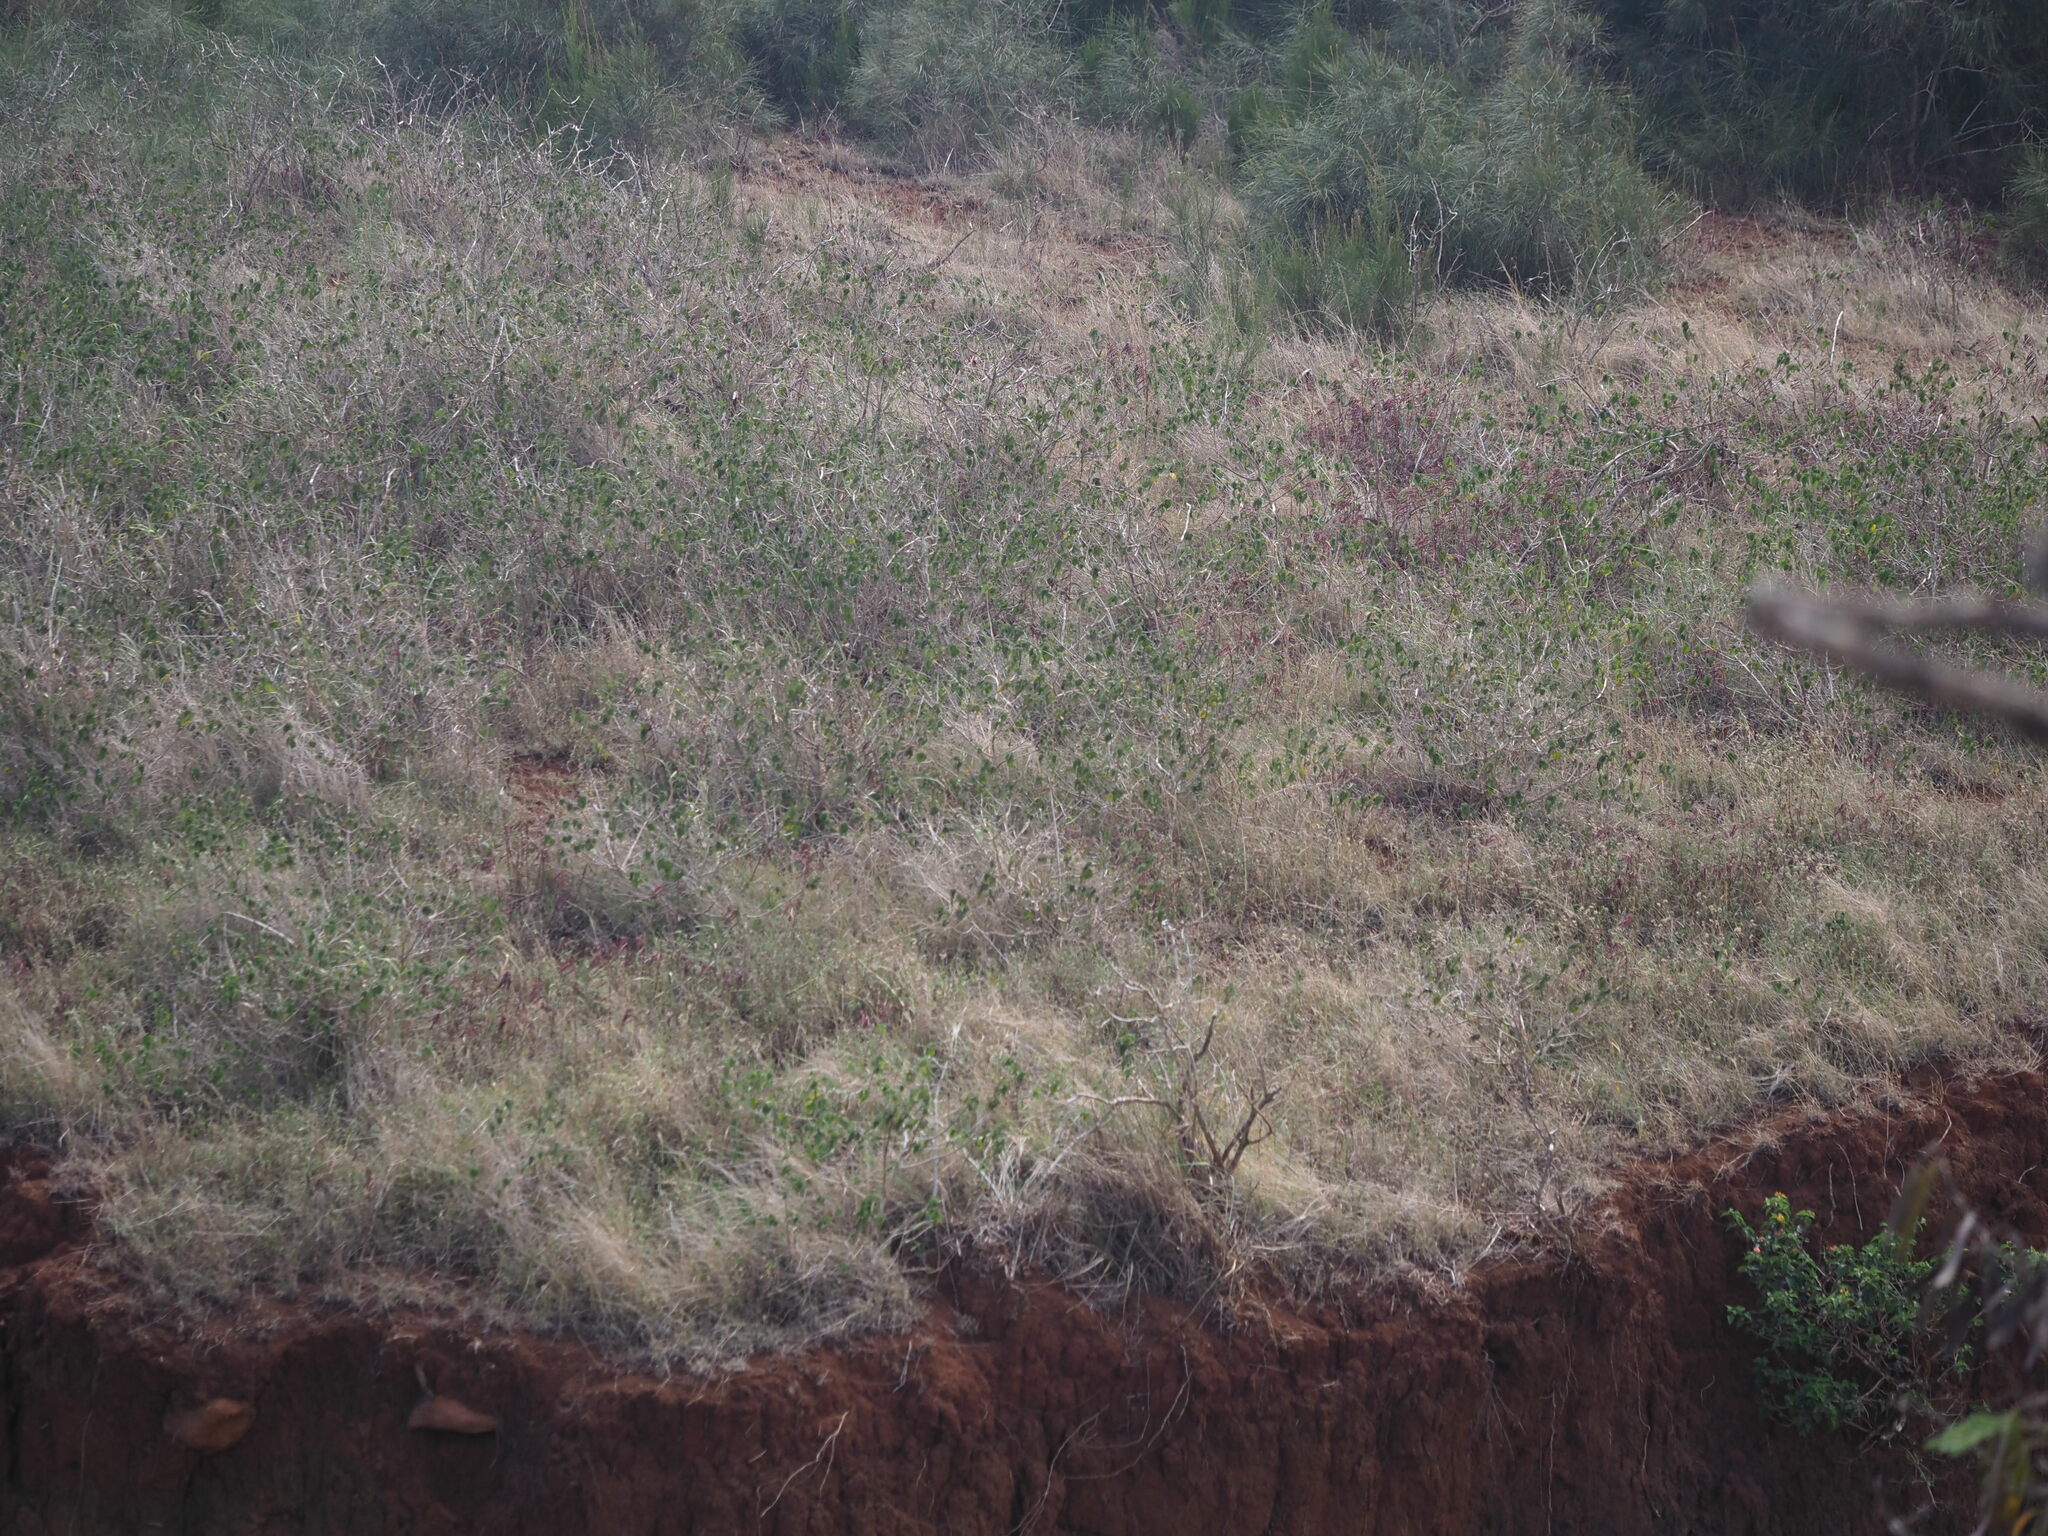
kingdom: Plantae
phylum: Tracheophyta
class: Magnoliopsida
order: Lamiales
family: Verbenaceae
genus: Lantana
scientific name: Lantana camara
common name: Lantana
